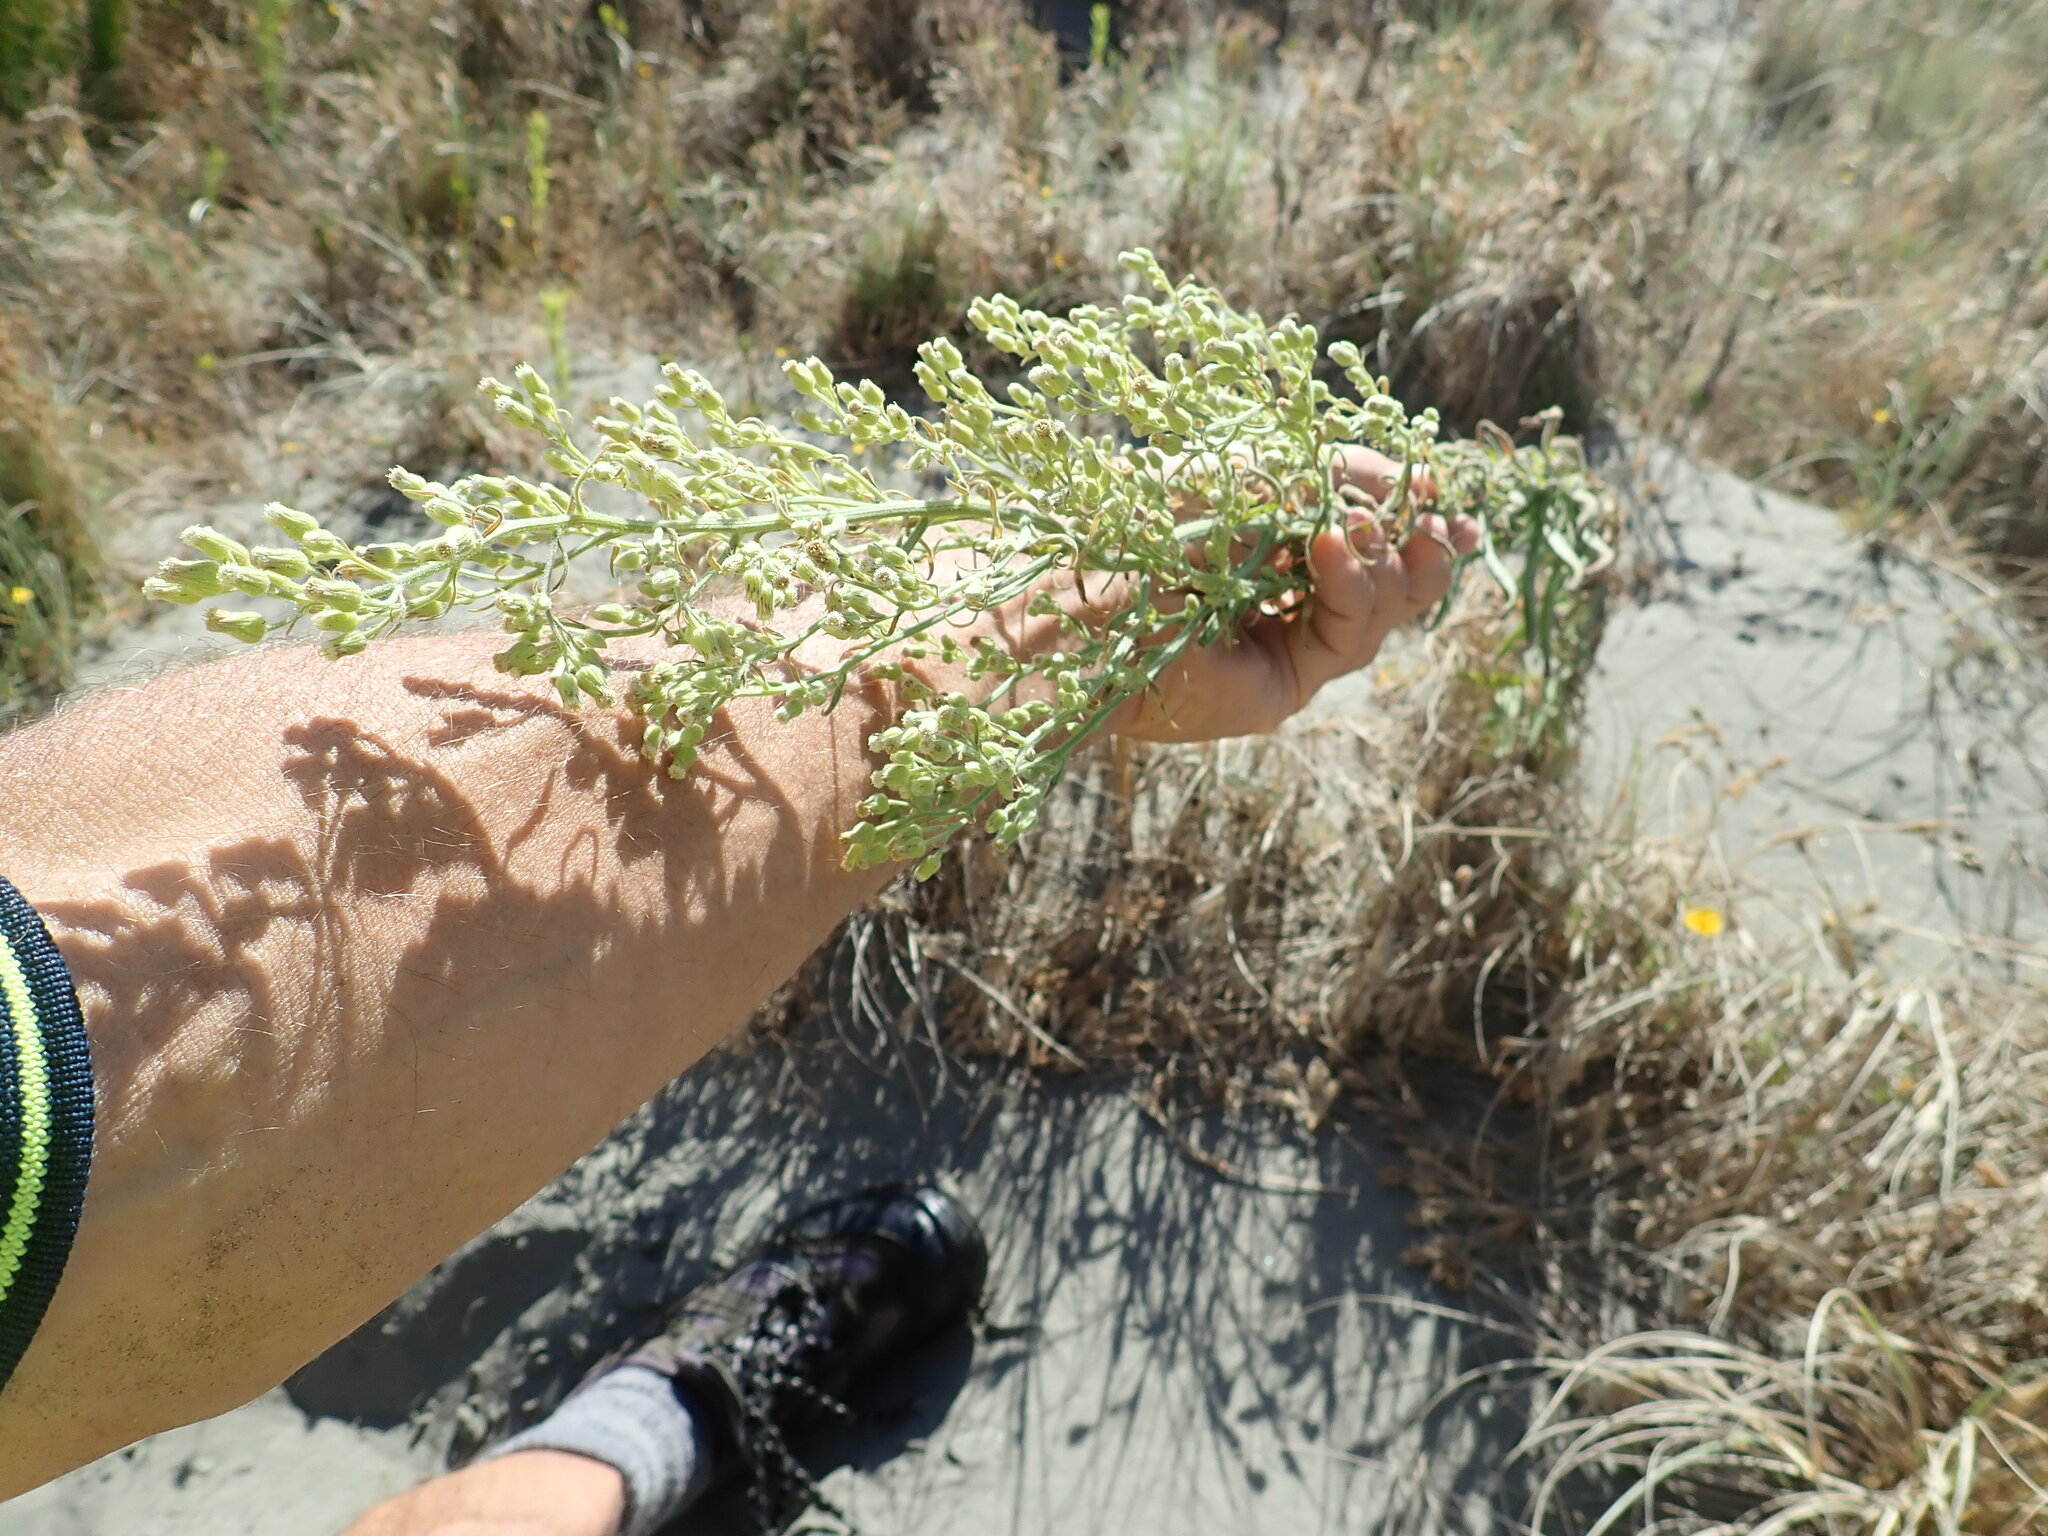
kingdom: Plantae
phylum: Tracheophyta
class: Magnoliopsida
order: Asterales
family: Asteraceae
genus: Erigeron
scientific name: Erigeron sumatrensis
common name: Daisy
